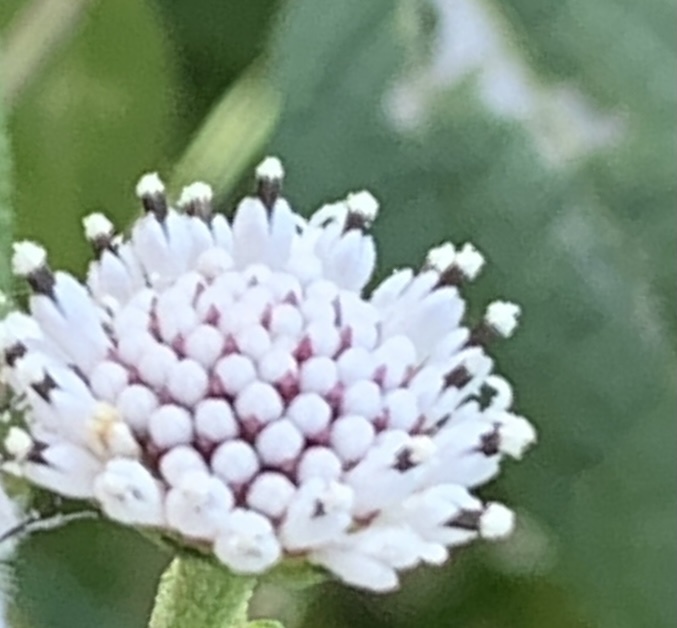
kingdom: Plantae
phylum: Tracheophyta
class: Magnoliopsida
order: Asterales
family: Asteraceae
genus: Melanthera
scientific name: Melanthera nivea
